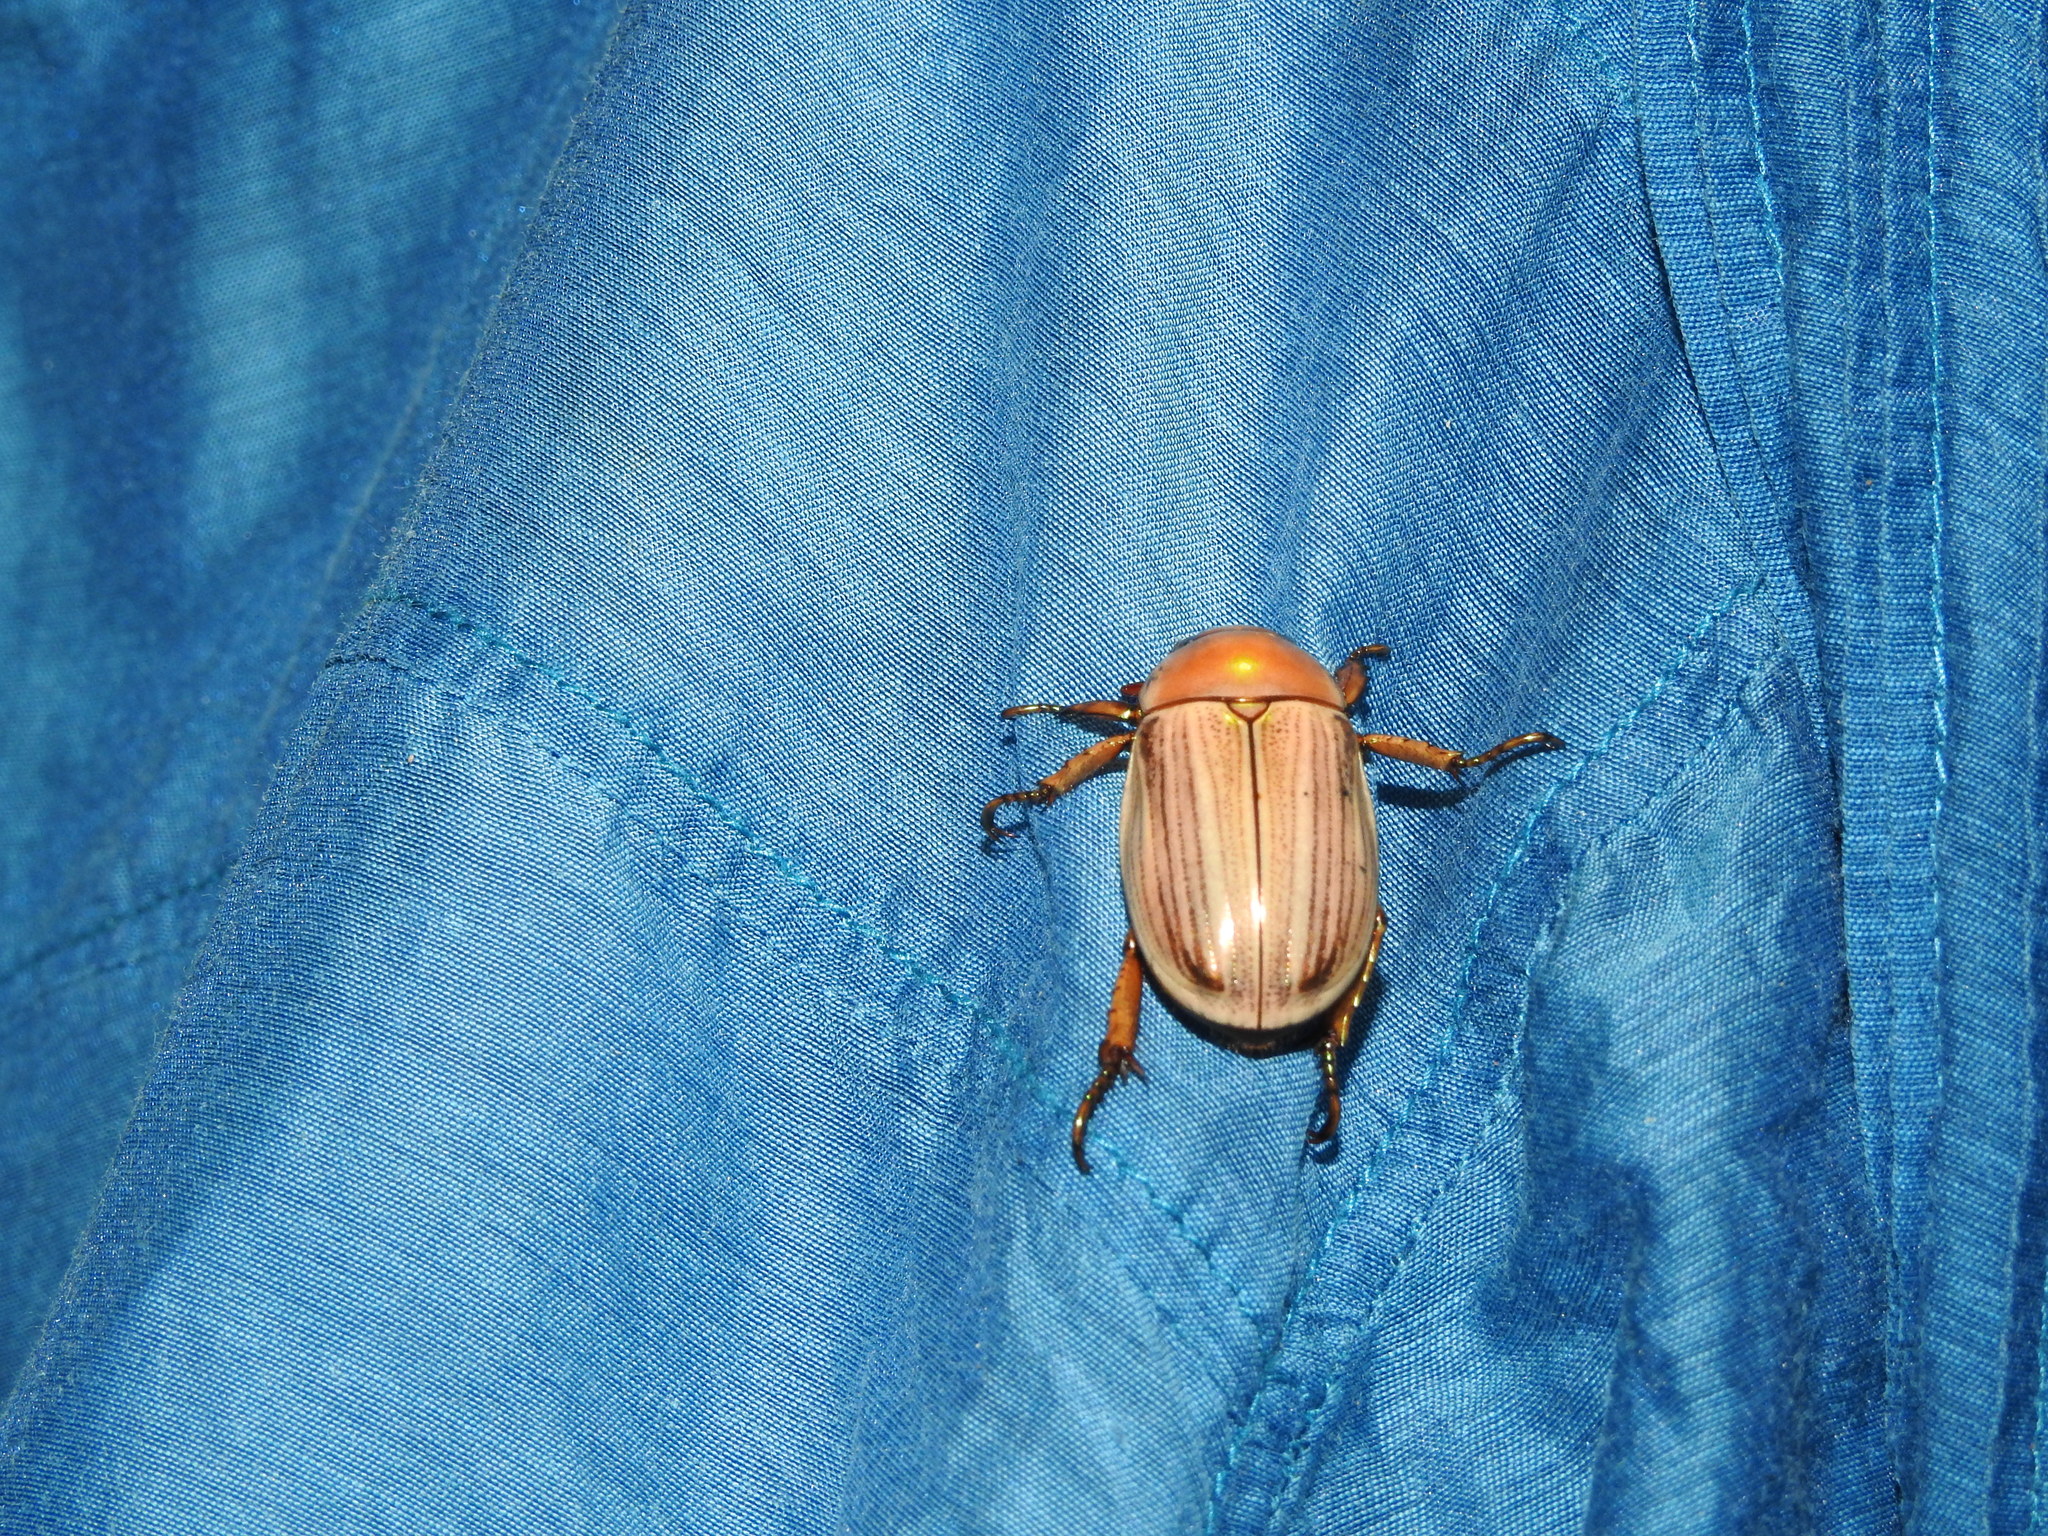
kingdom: Animalia
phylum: Arthropoda
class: Insecta
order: Coleoptera
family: Scarabaeidae
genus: Pelidnota
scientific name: Pelidnota virescens
